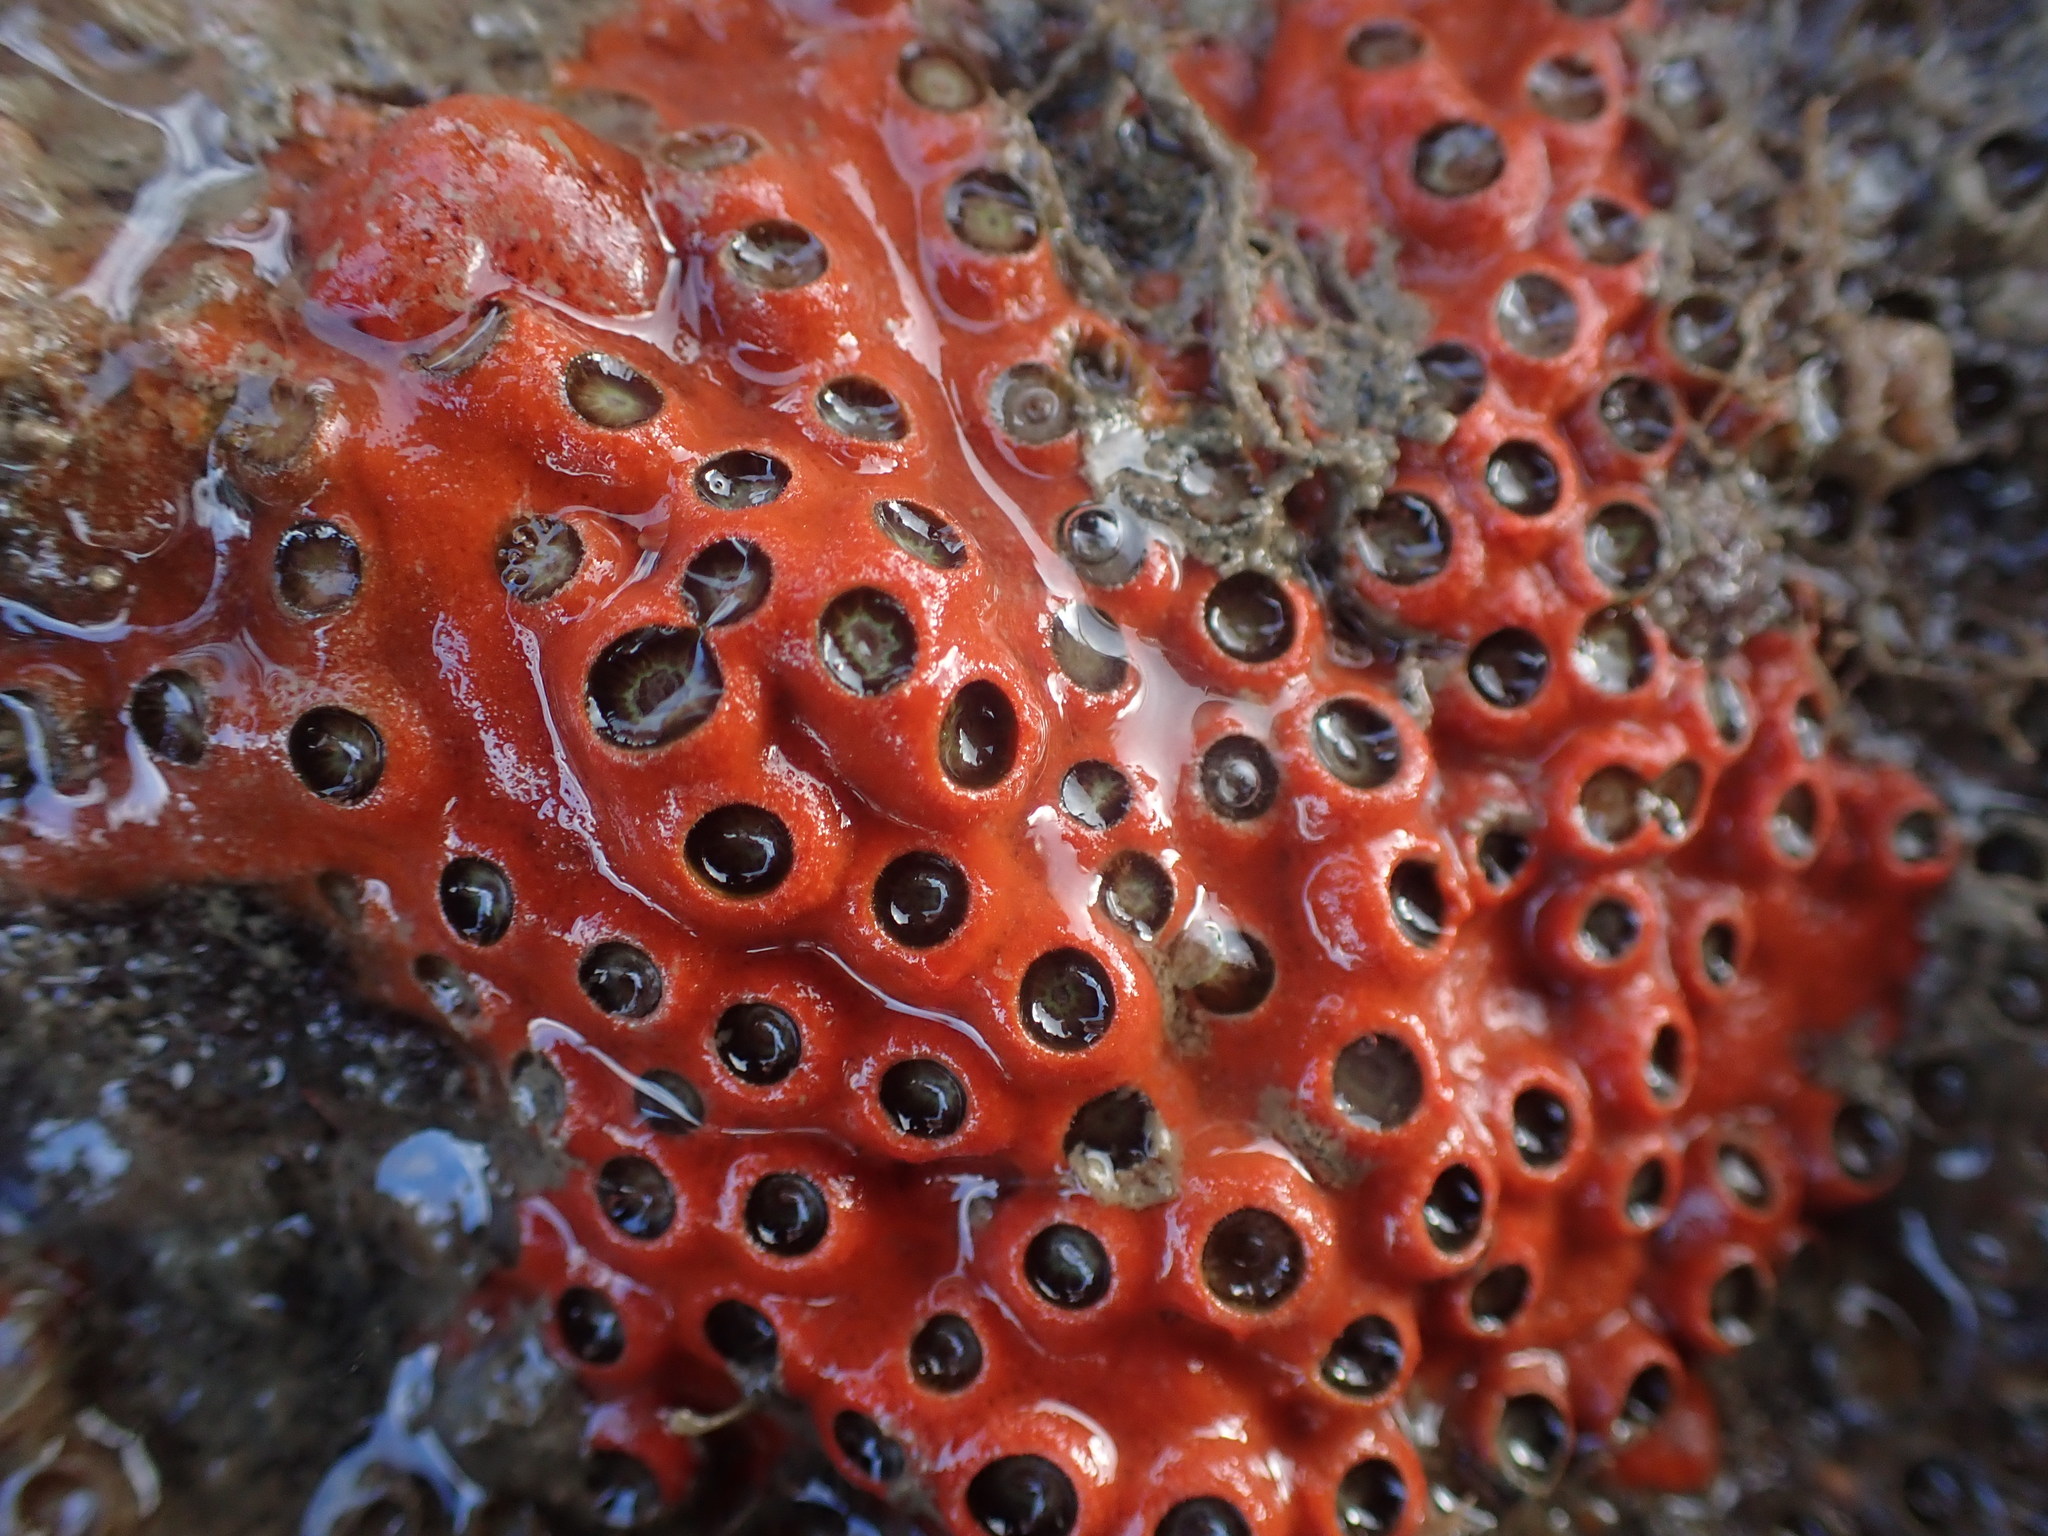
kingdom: Animalia
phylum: Cnidaria
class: Anthozoa
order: Scleractinia
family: Rhizangiidae
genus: Culicia
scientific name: Culicia rubeola
